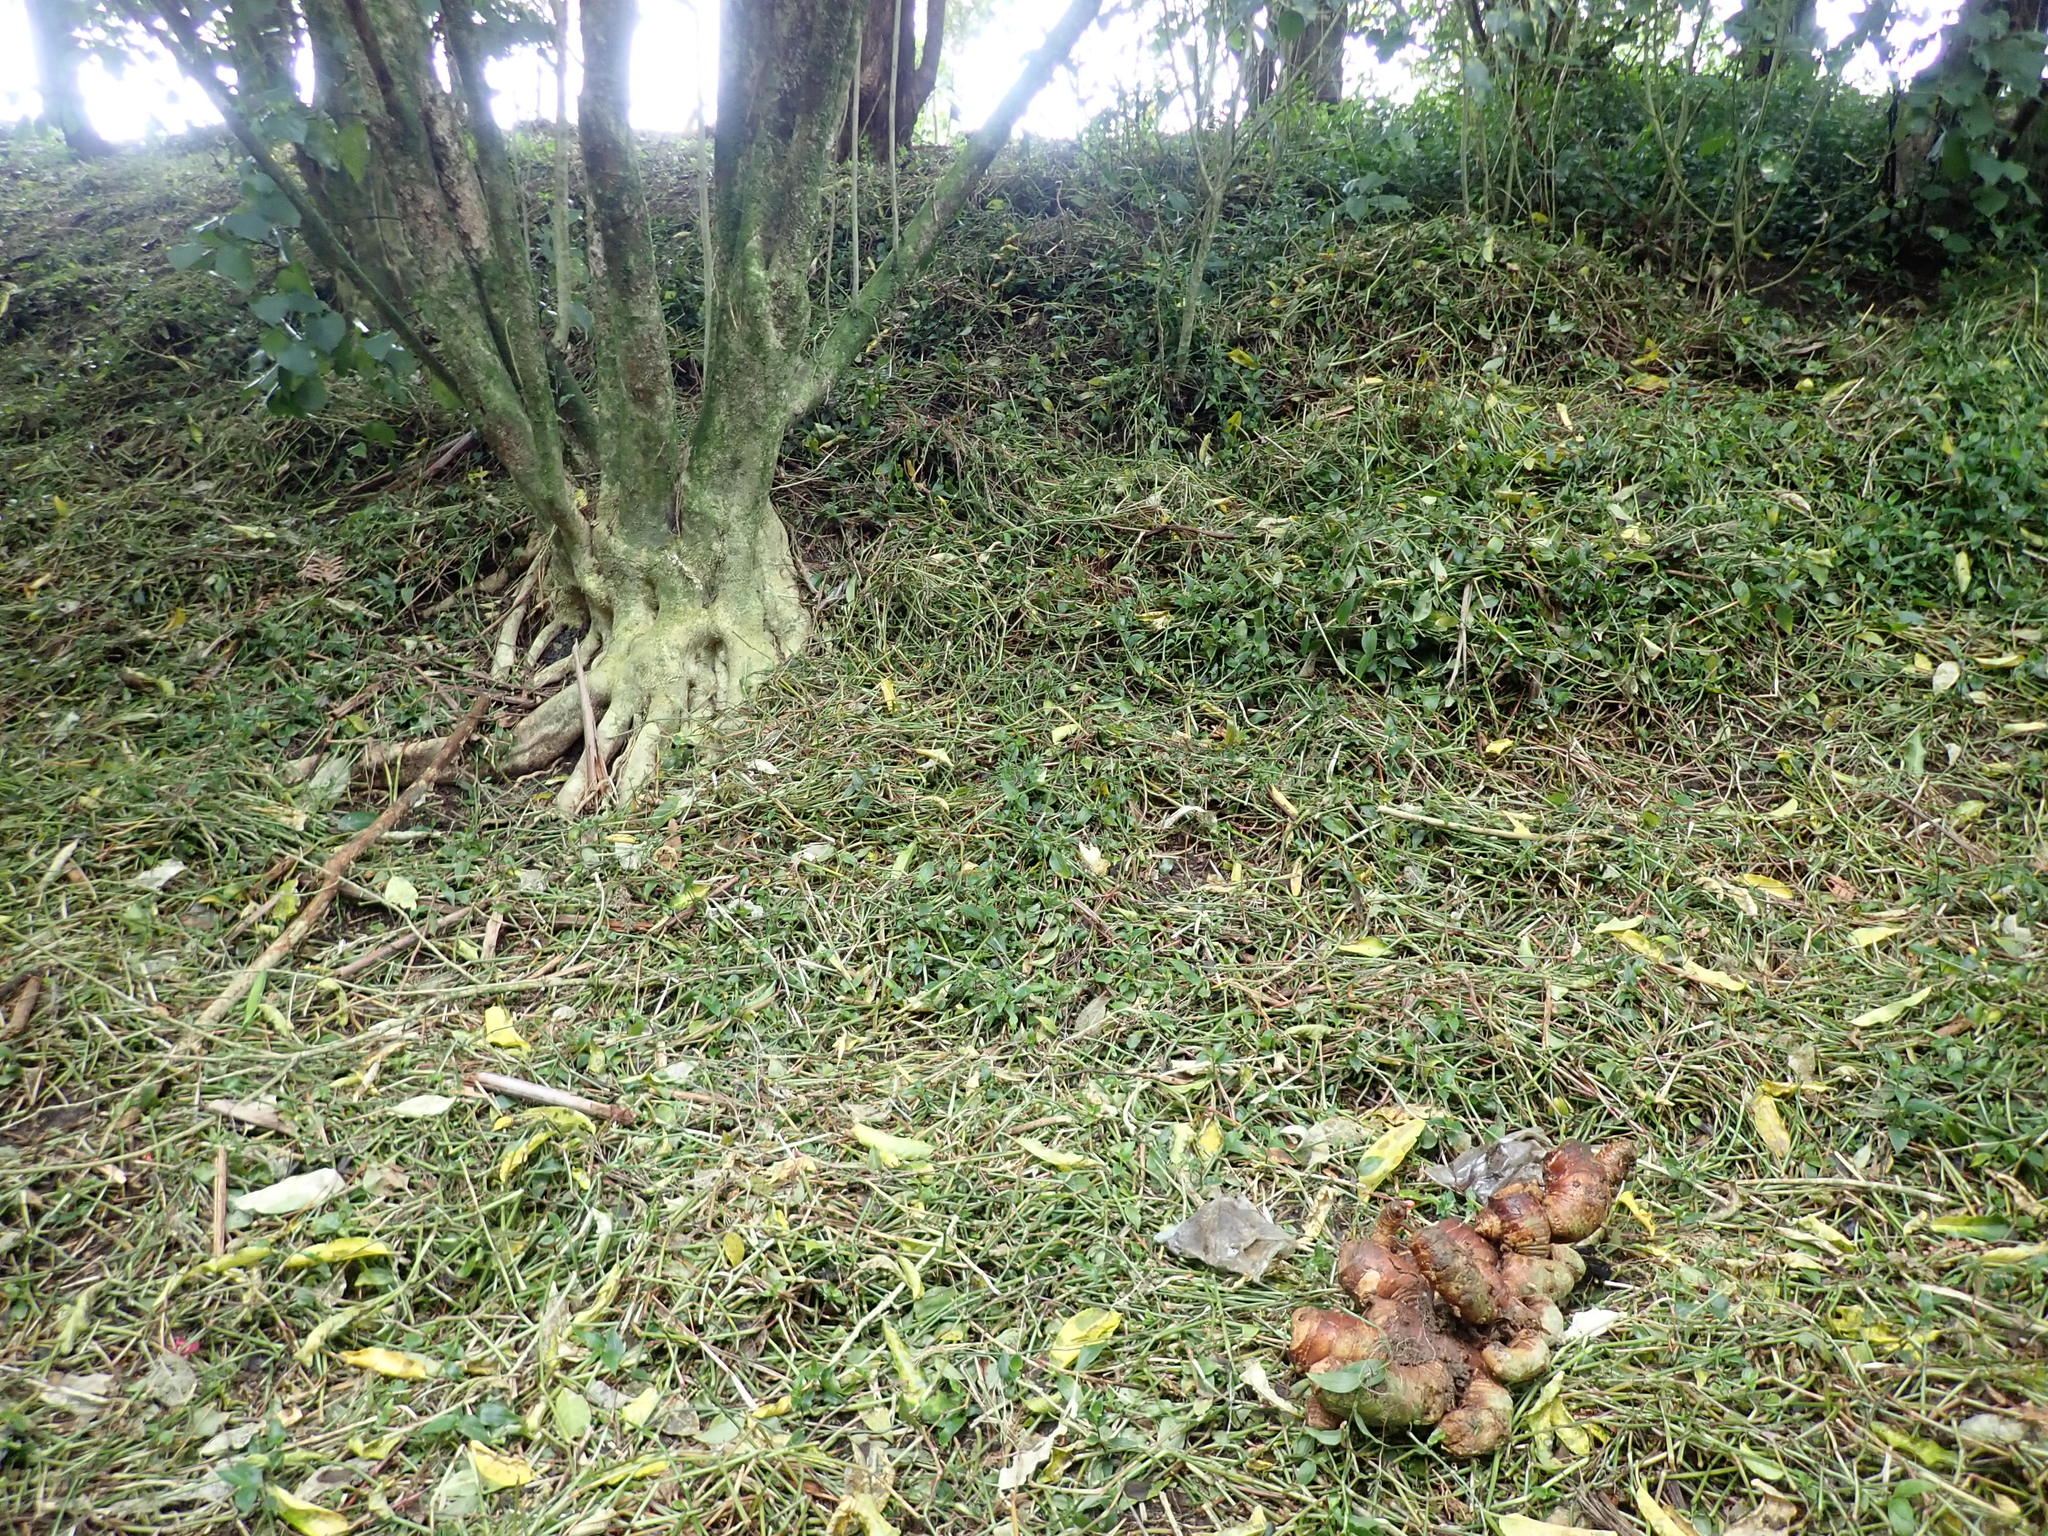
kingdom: Plantae
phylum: Tracheophyta
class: Liliopsida
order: Commelinales
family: Commelinaceae
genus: Tradescantia
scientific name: Tradescantia fluminensis
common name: Wandering-jew
